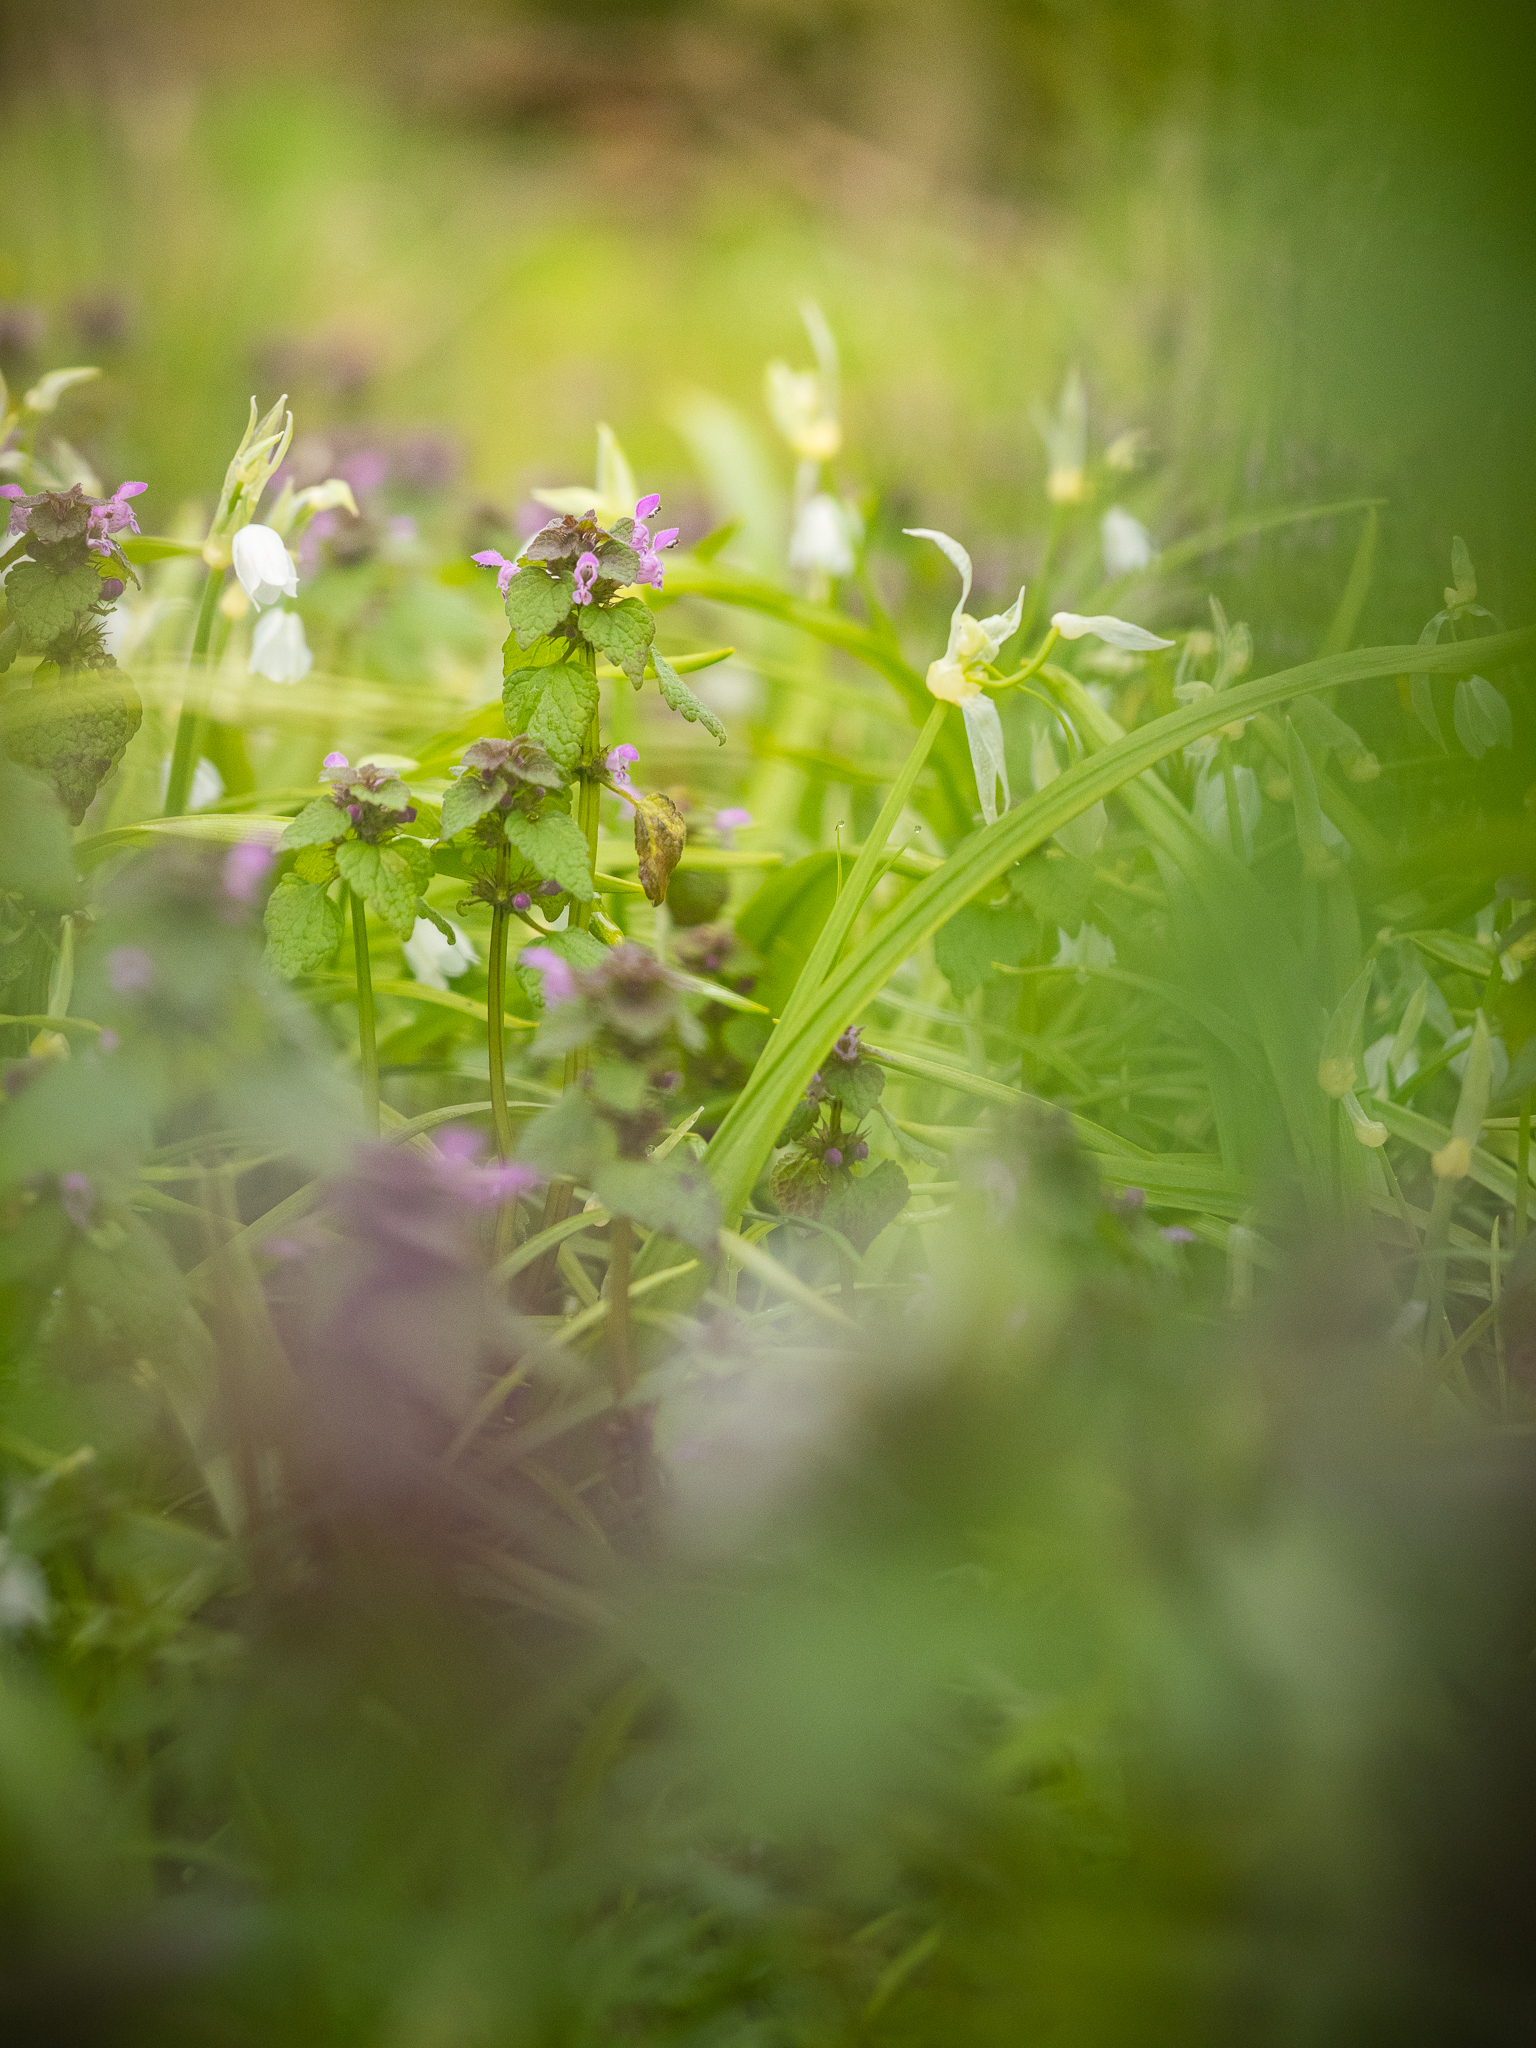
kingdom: Plantae
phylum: Tracheophyta
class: Magnoliopsida
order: Lamiales
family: Lamiaceae
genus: Lamium
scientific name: Lamium purpureum
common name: Red dead-nettle
